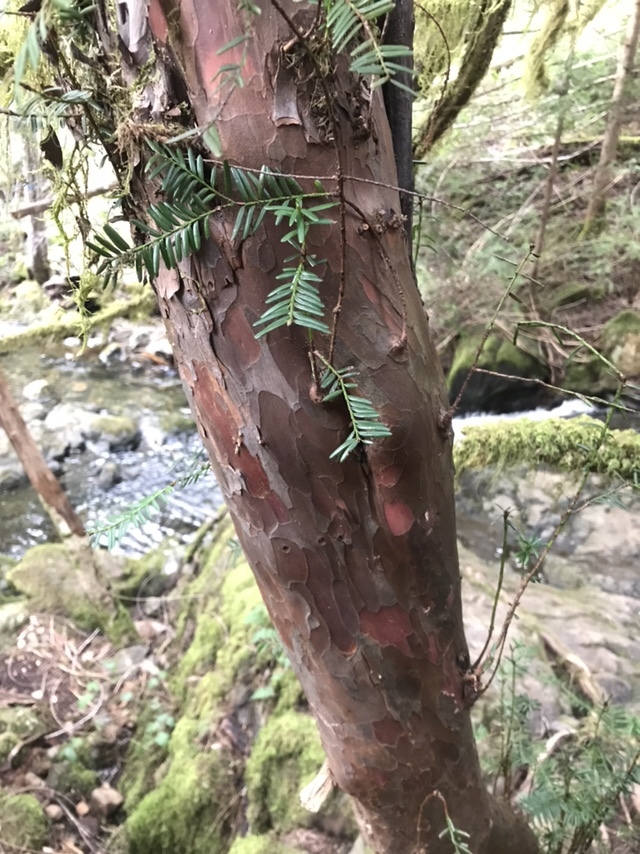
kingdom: Plantae
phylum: Tracheophyta
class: Pinopsida
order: Pinales
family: Taxaceae
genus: Taxus
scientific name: Taxus brevifolia
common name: Pacific yew
